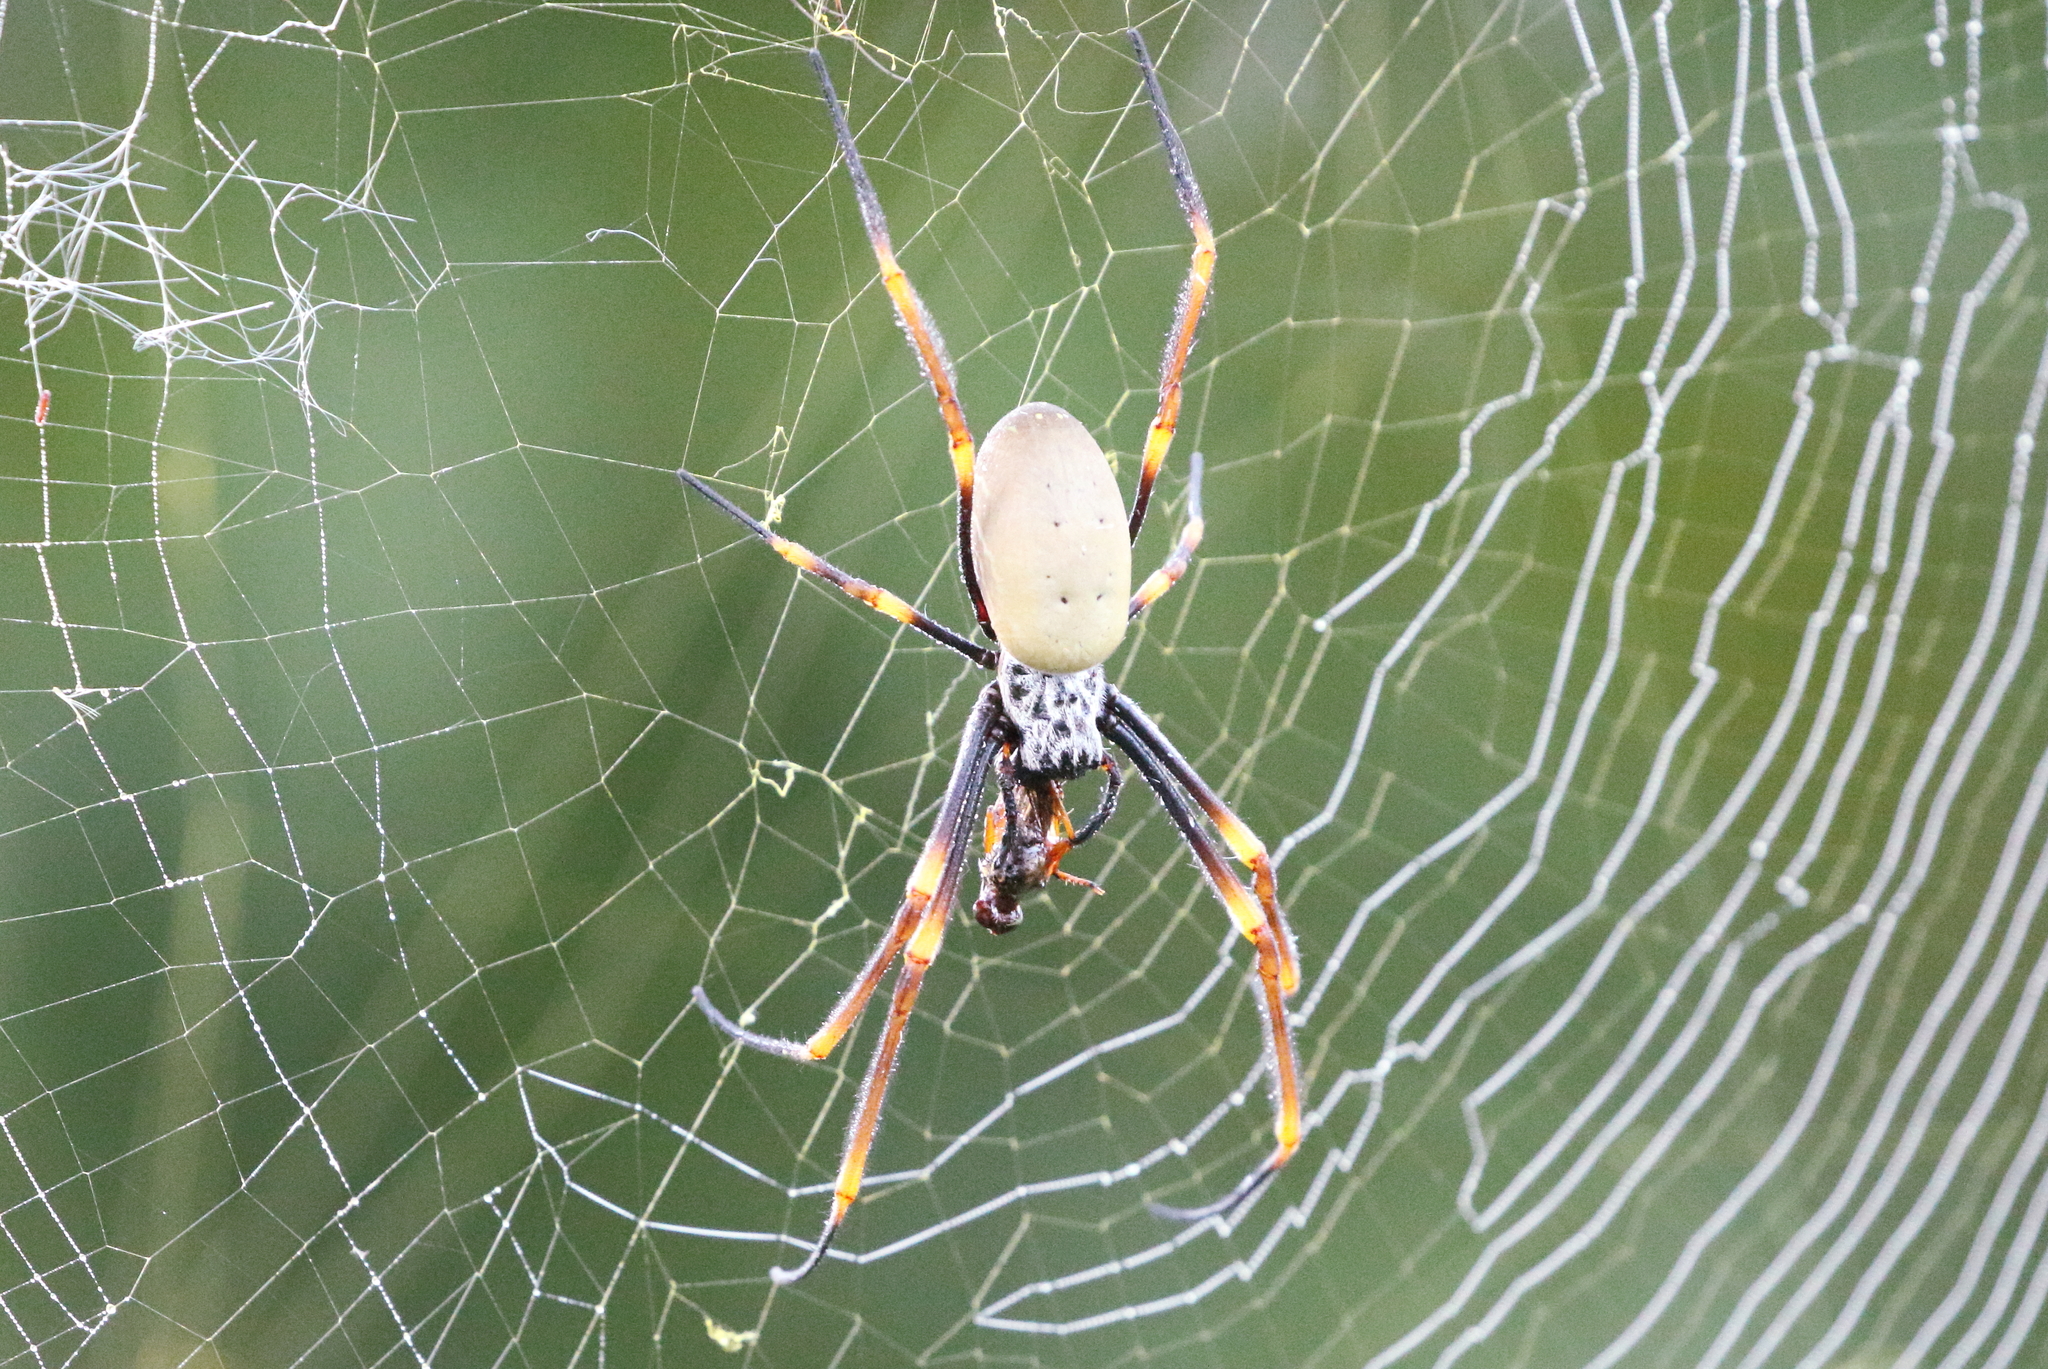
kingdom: Animalia
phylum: Arthropoda
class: Arachnida
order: Araneae
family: Araneidae
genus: Trichonephila
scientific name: Trichonephila plumipes
